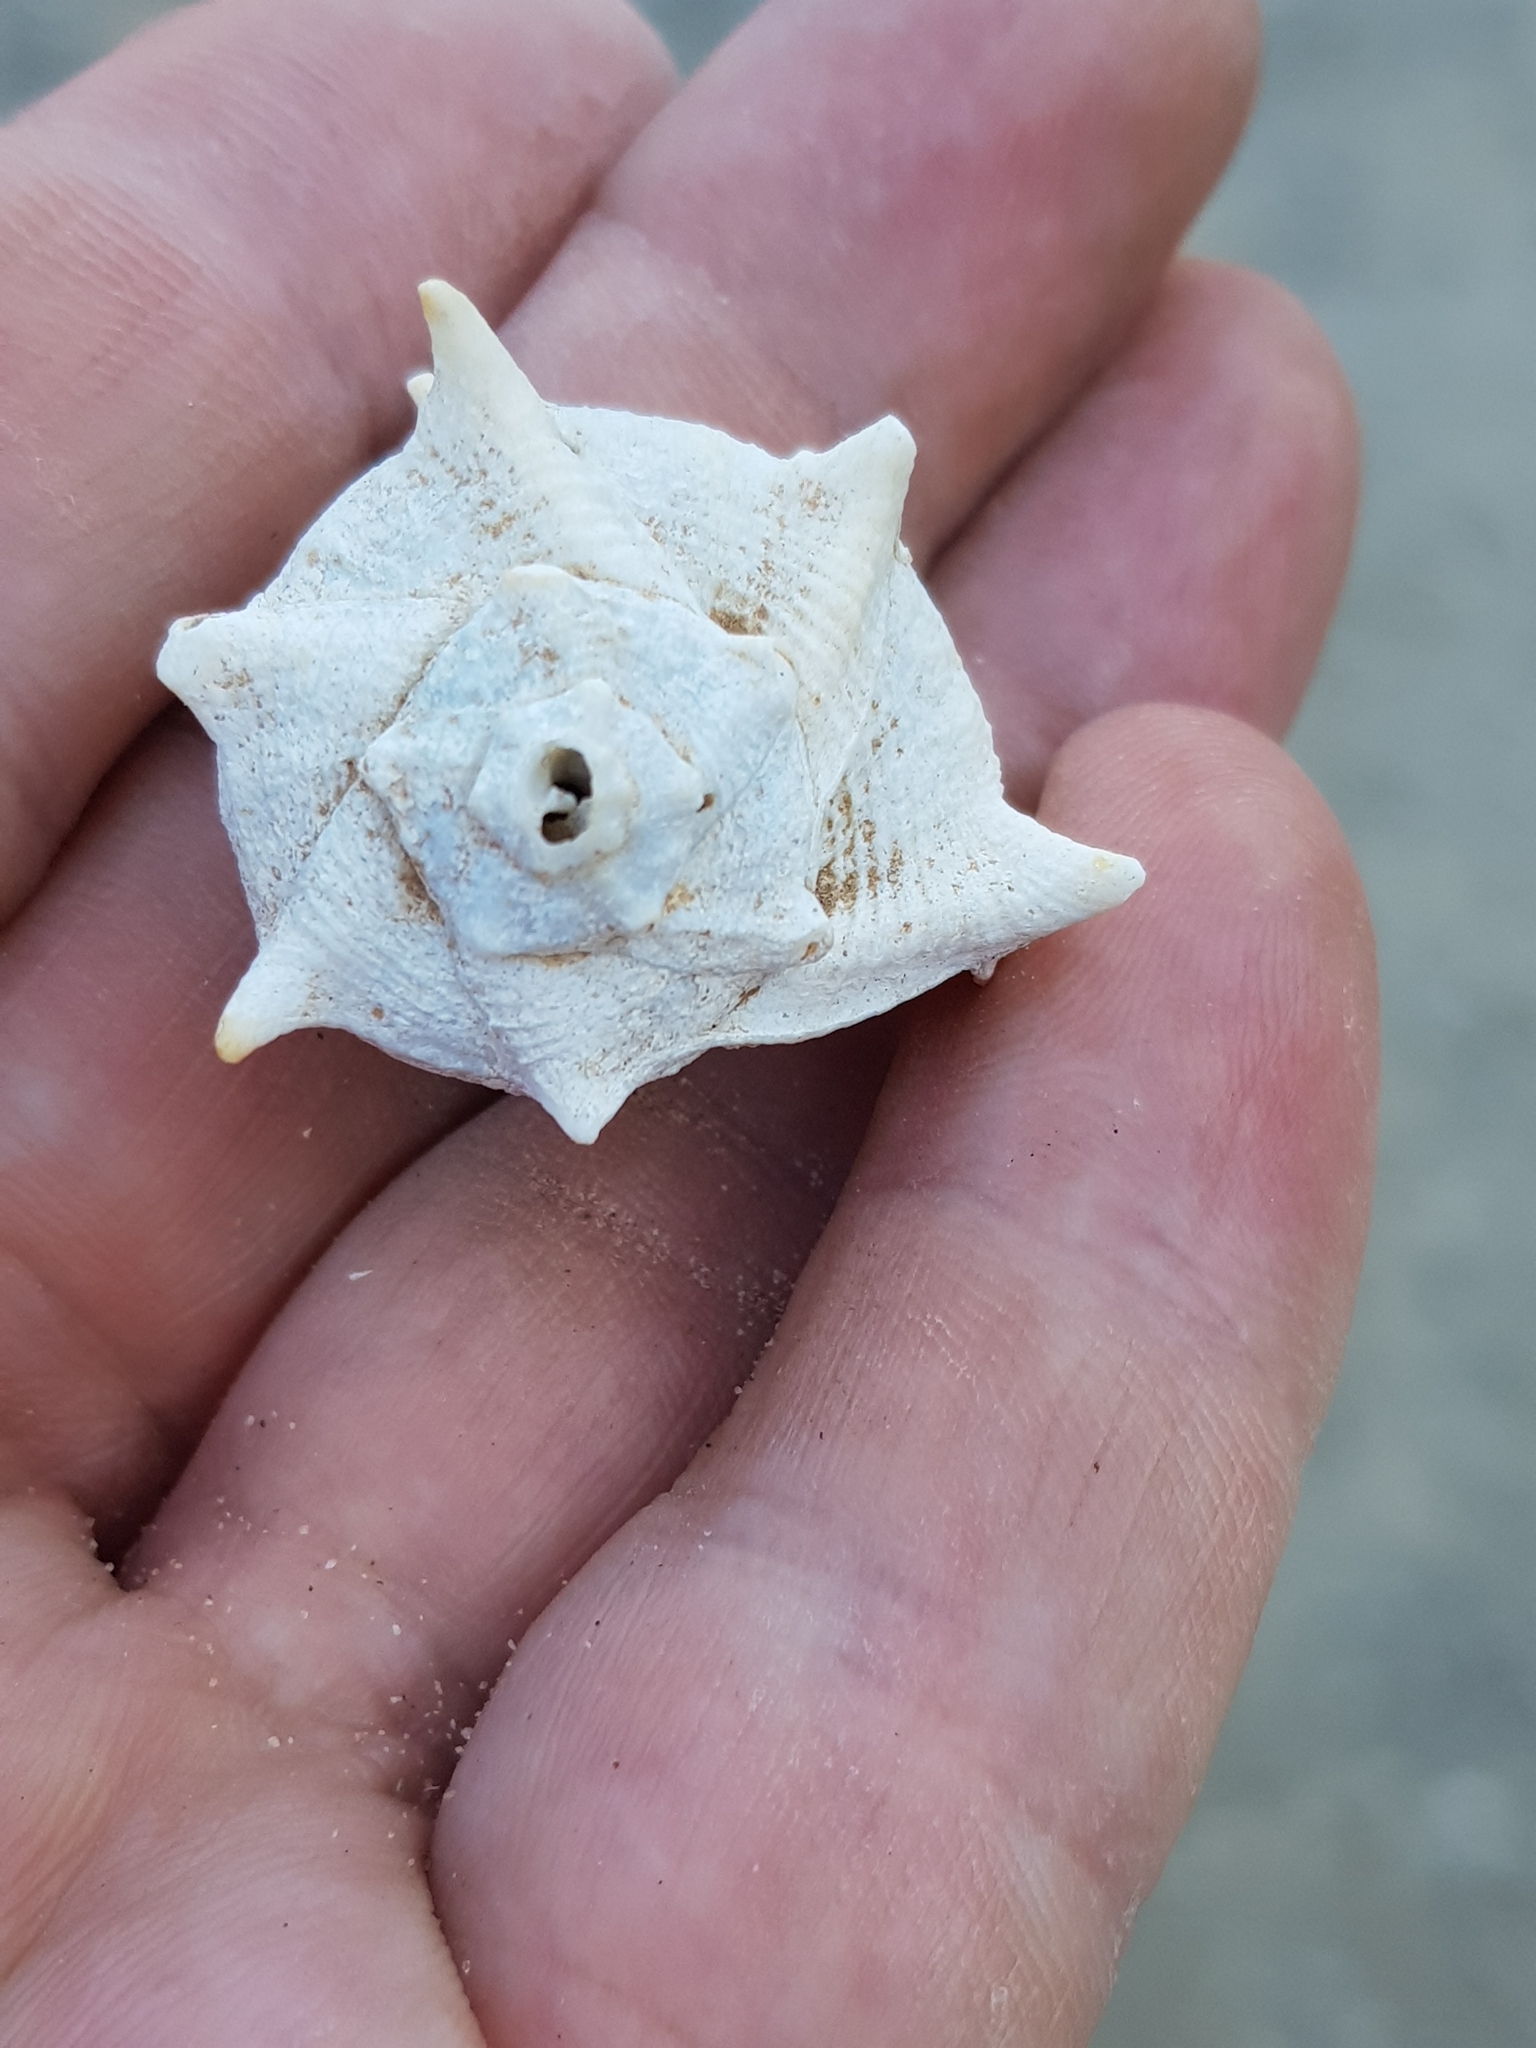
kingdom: Animalia
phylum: Mollusca
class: Gastropoda
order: Neogastropoda
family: Muricidae
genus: Bolinus
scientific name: Bolinus brandaris
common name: Dye murex
